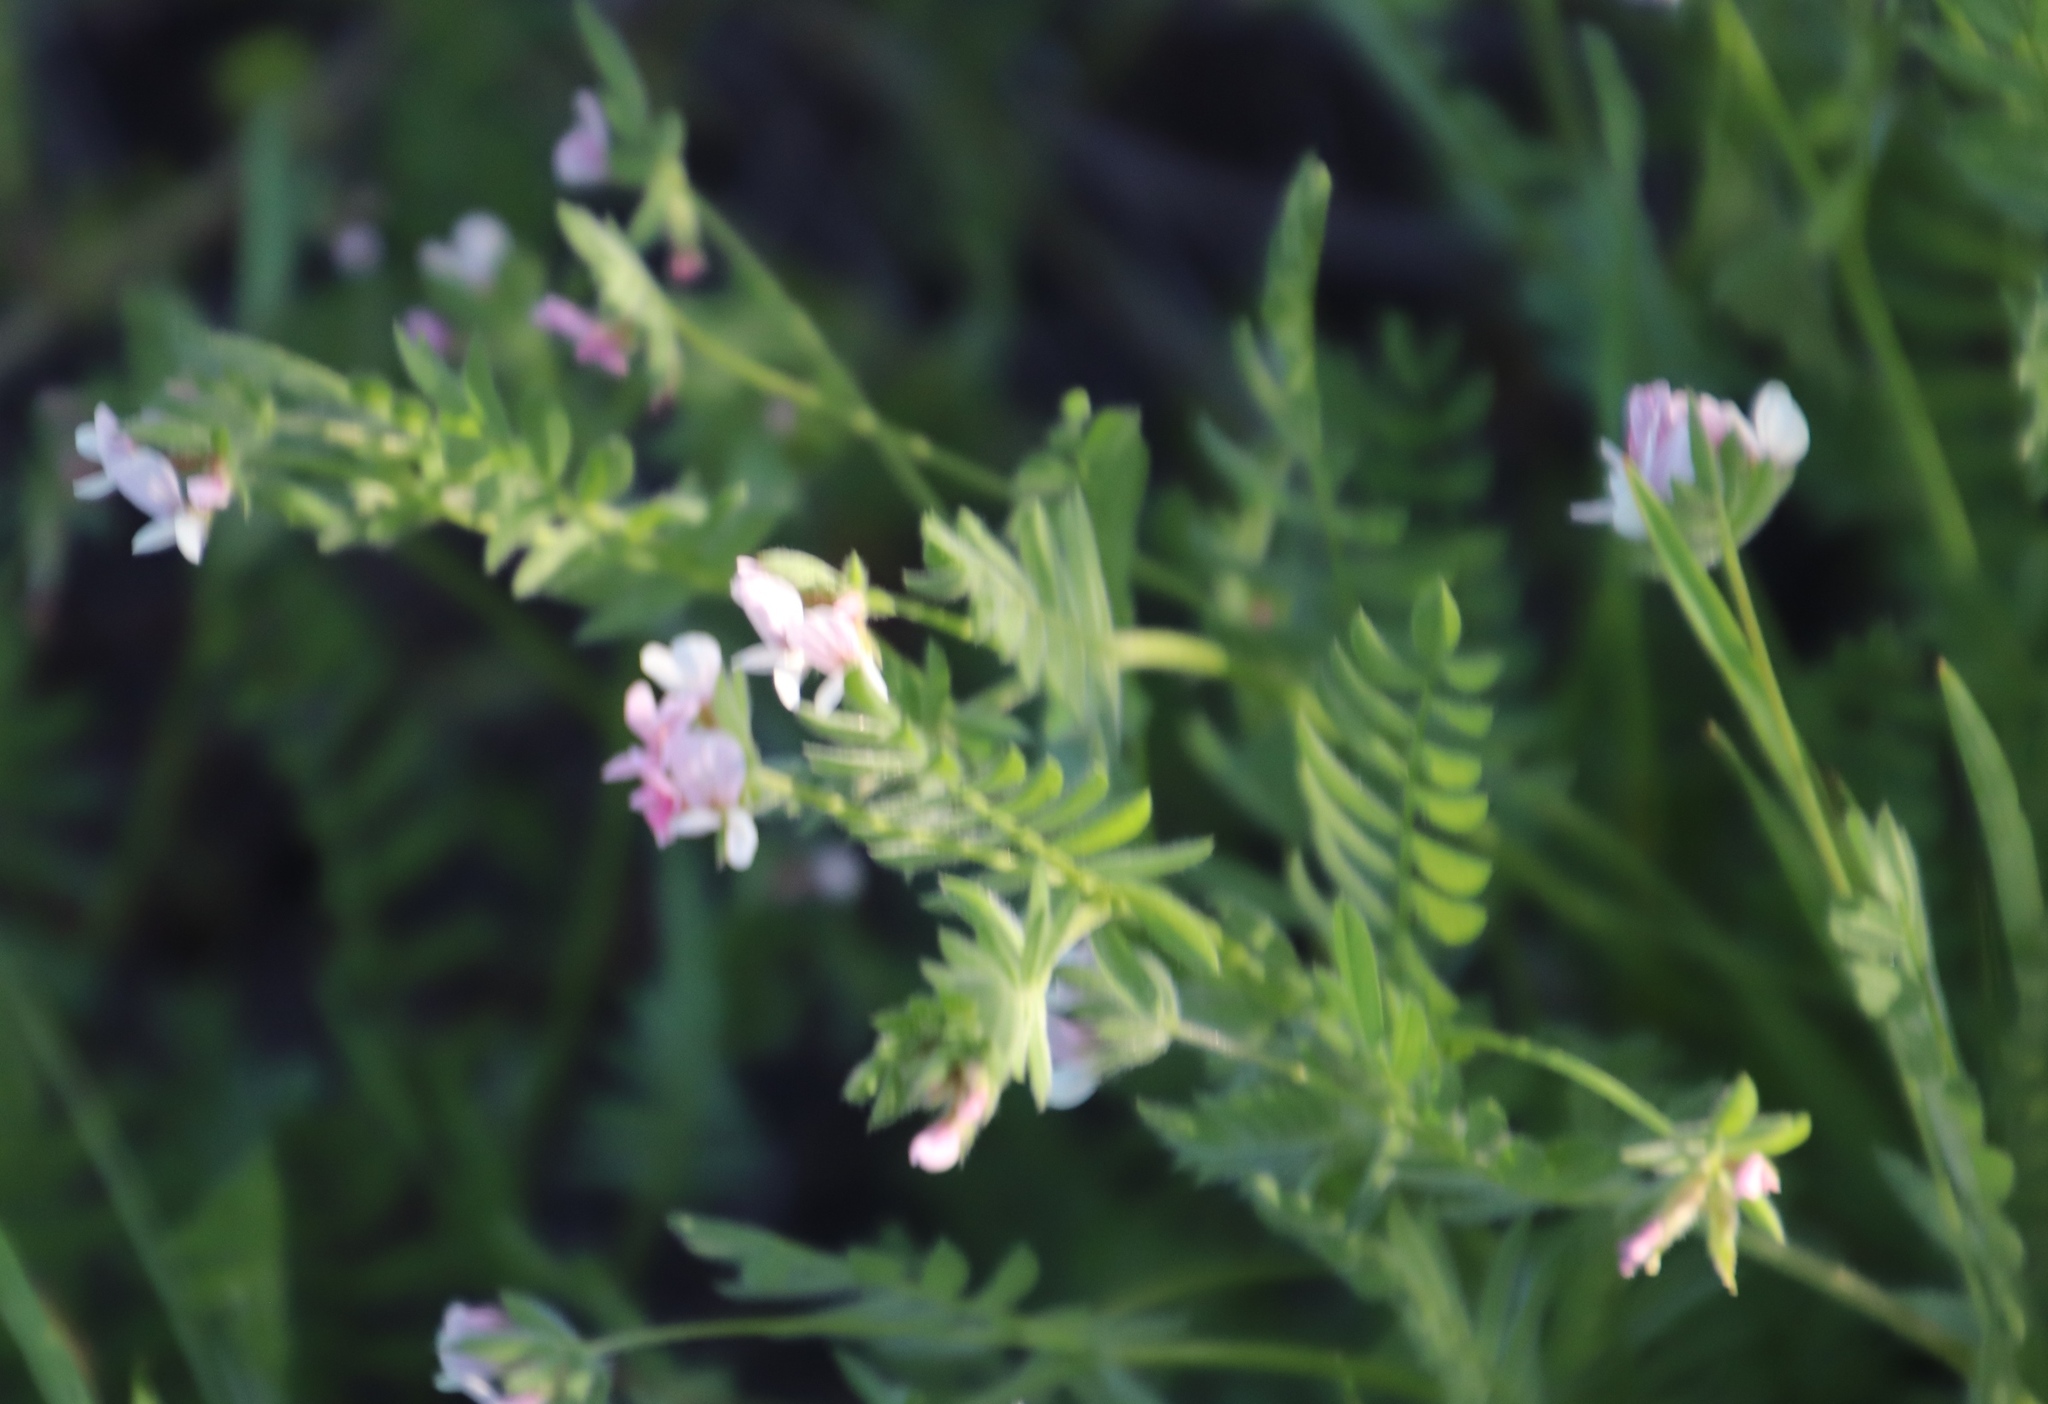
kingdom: Plantae
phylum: Tracheophyta
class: Magnoliopsida
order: Fabales
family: Fabaceae
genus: Ornithopus
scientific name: Ornithopus sativus
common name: Serradella
